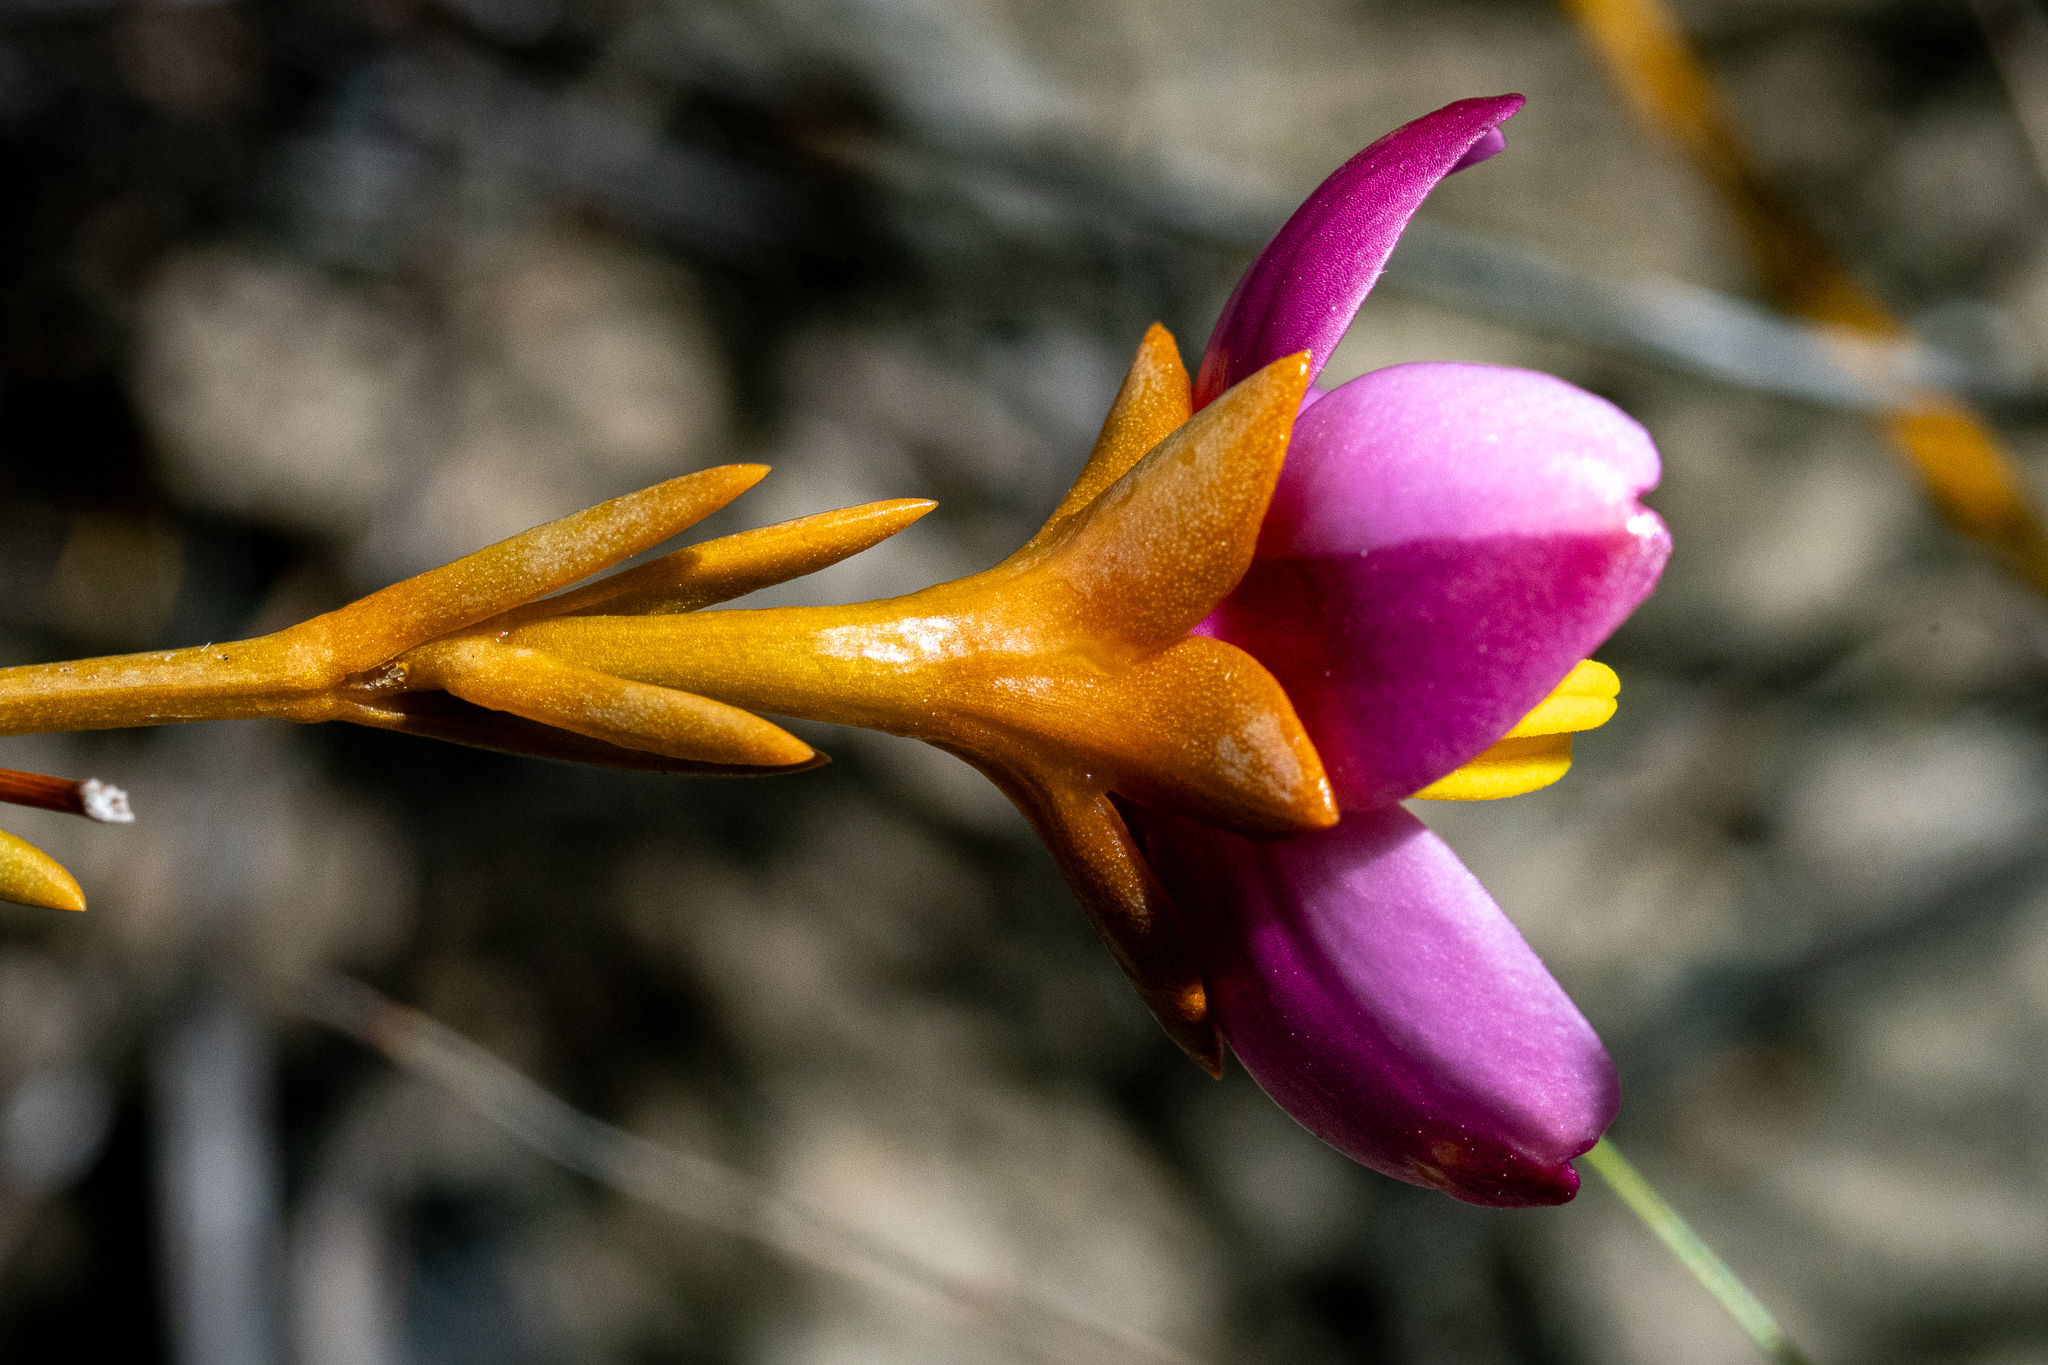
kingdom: Plantae
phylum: Tracheophyta
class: Magnoliopsida
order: Gentianales
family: Gentianaceae
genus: Chironia
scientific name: Chironia linoides
